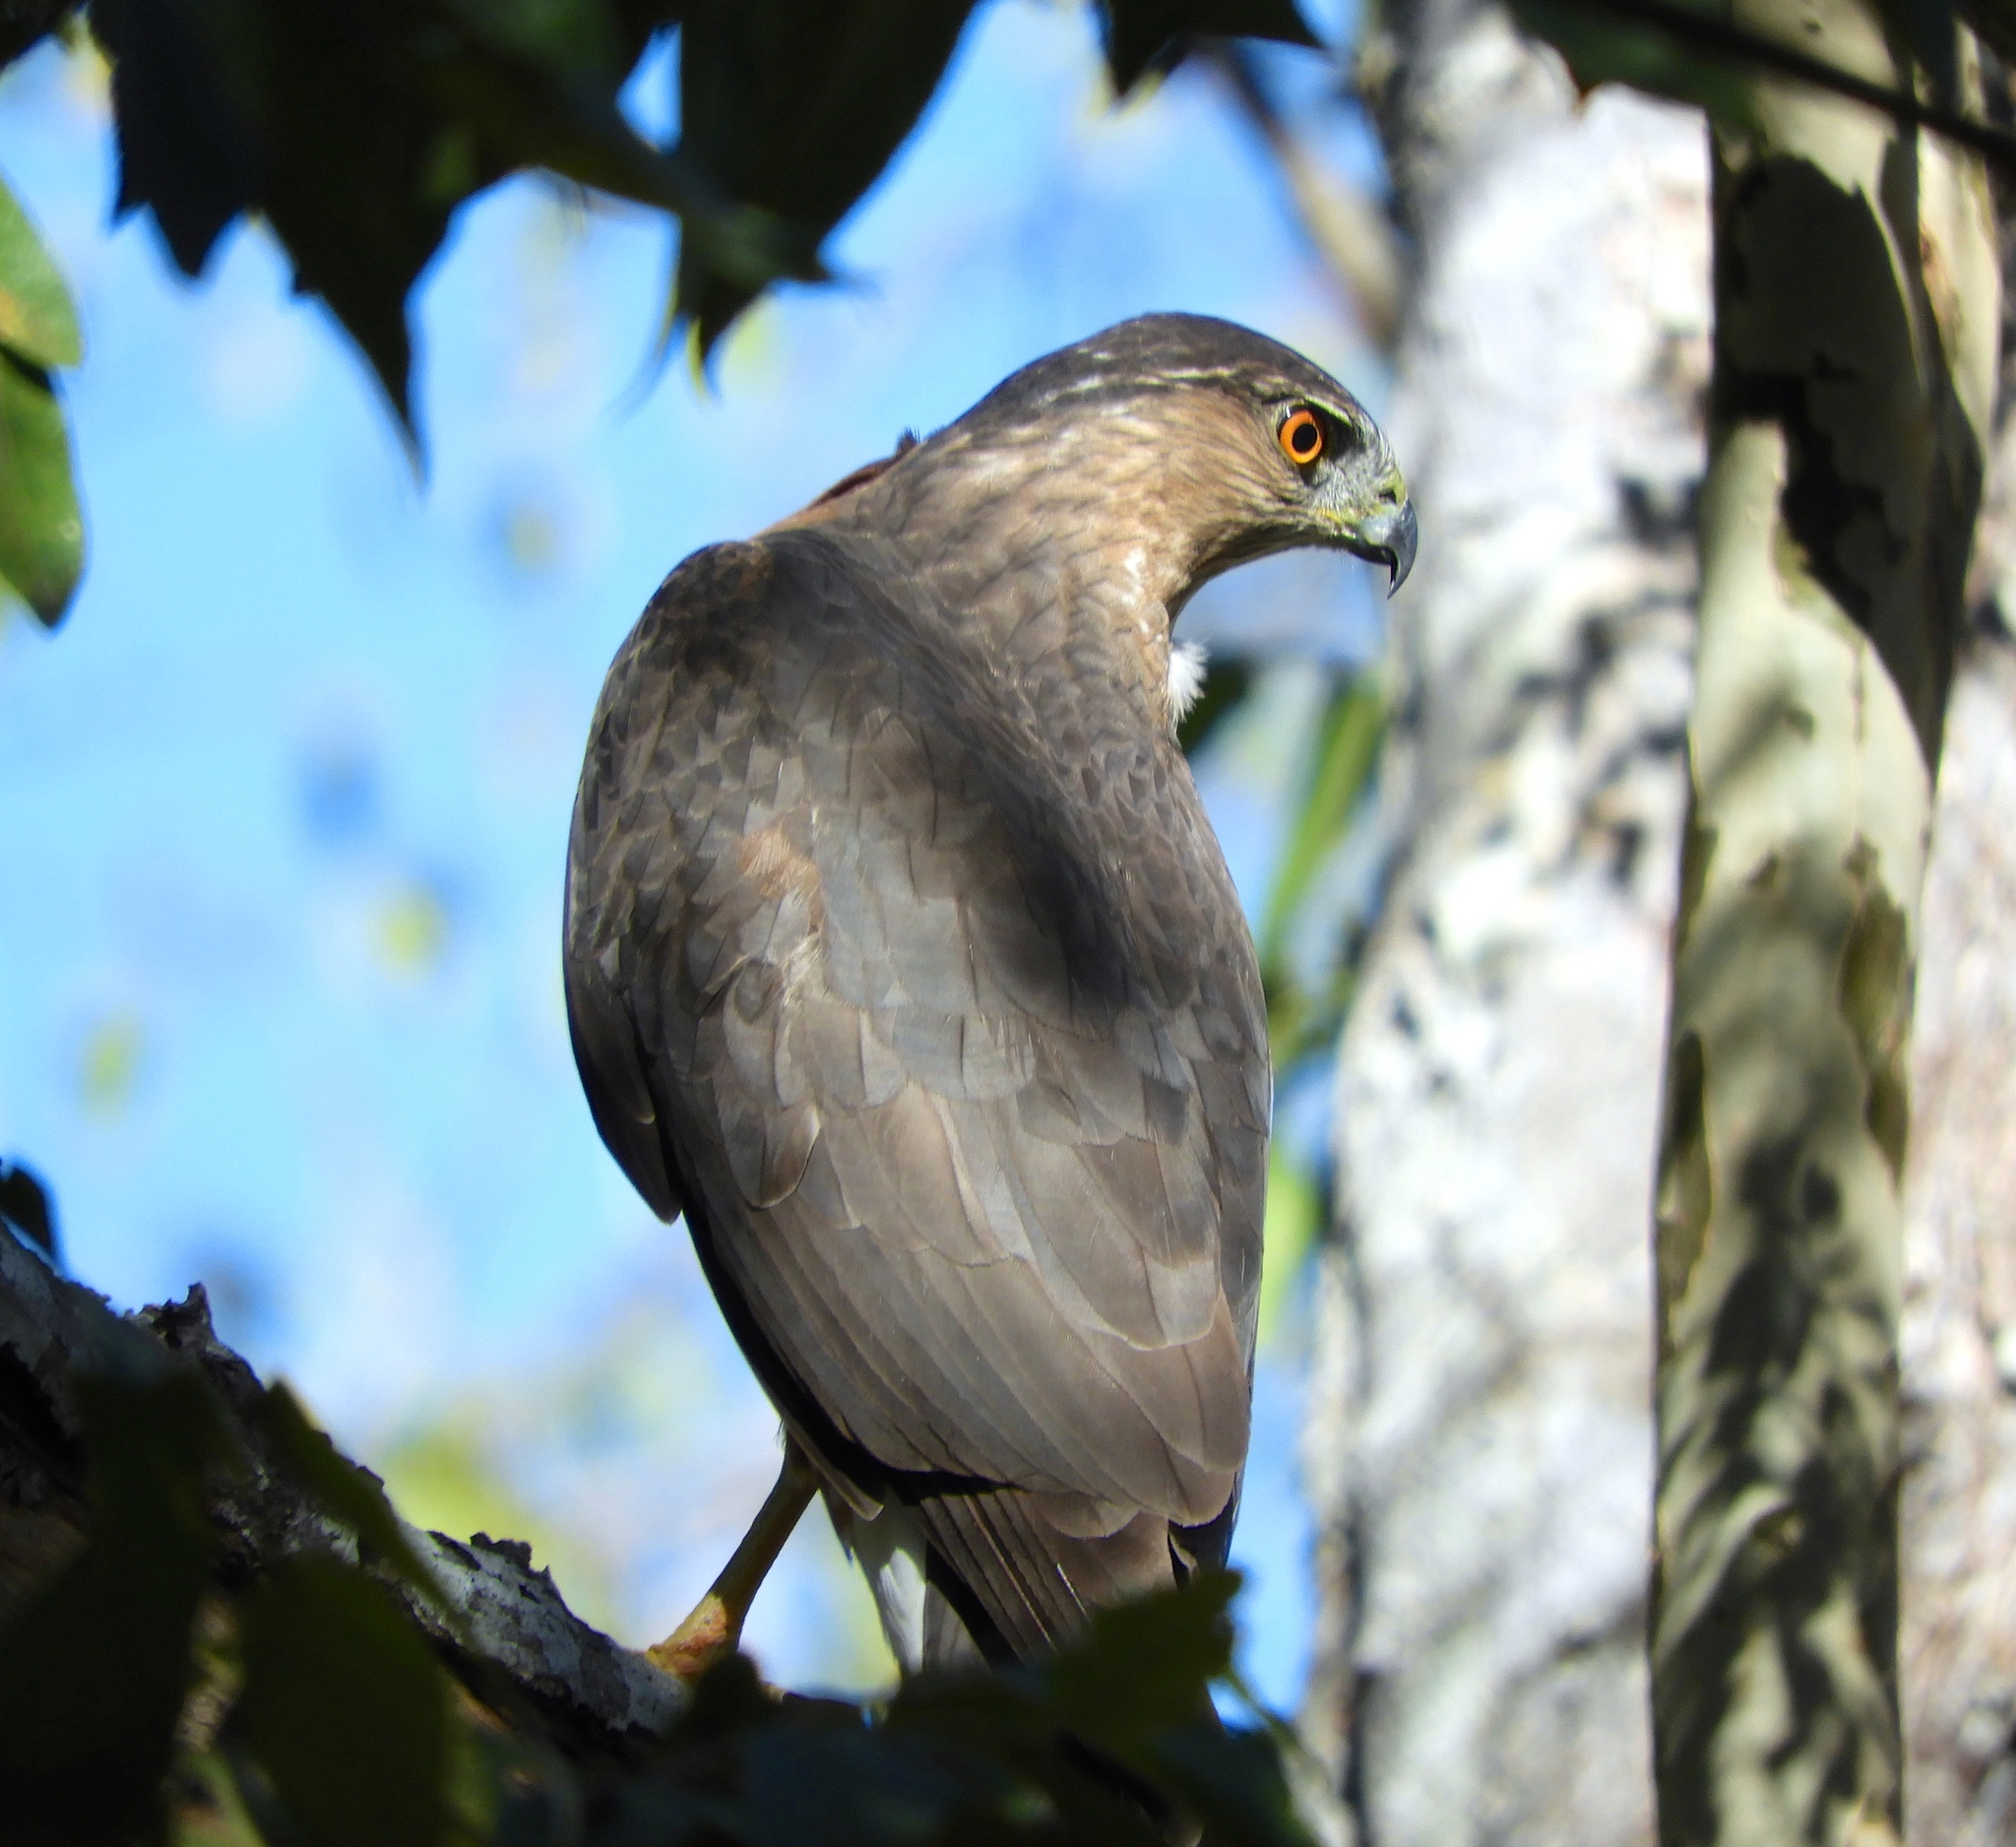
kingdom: Animalia
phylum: Chordata
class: Aves
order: Accipitriformes
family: Accipitridae
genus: Accipiter
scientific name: Accipiter cooperii
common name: Cooper's hawk
